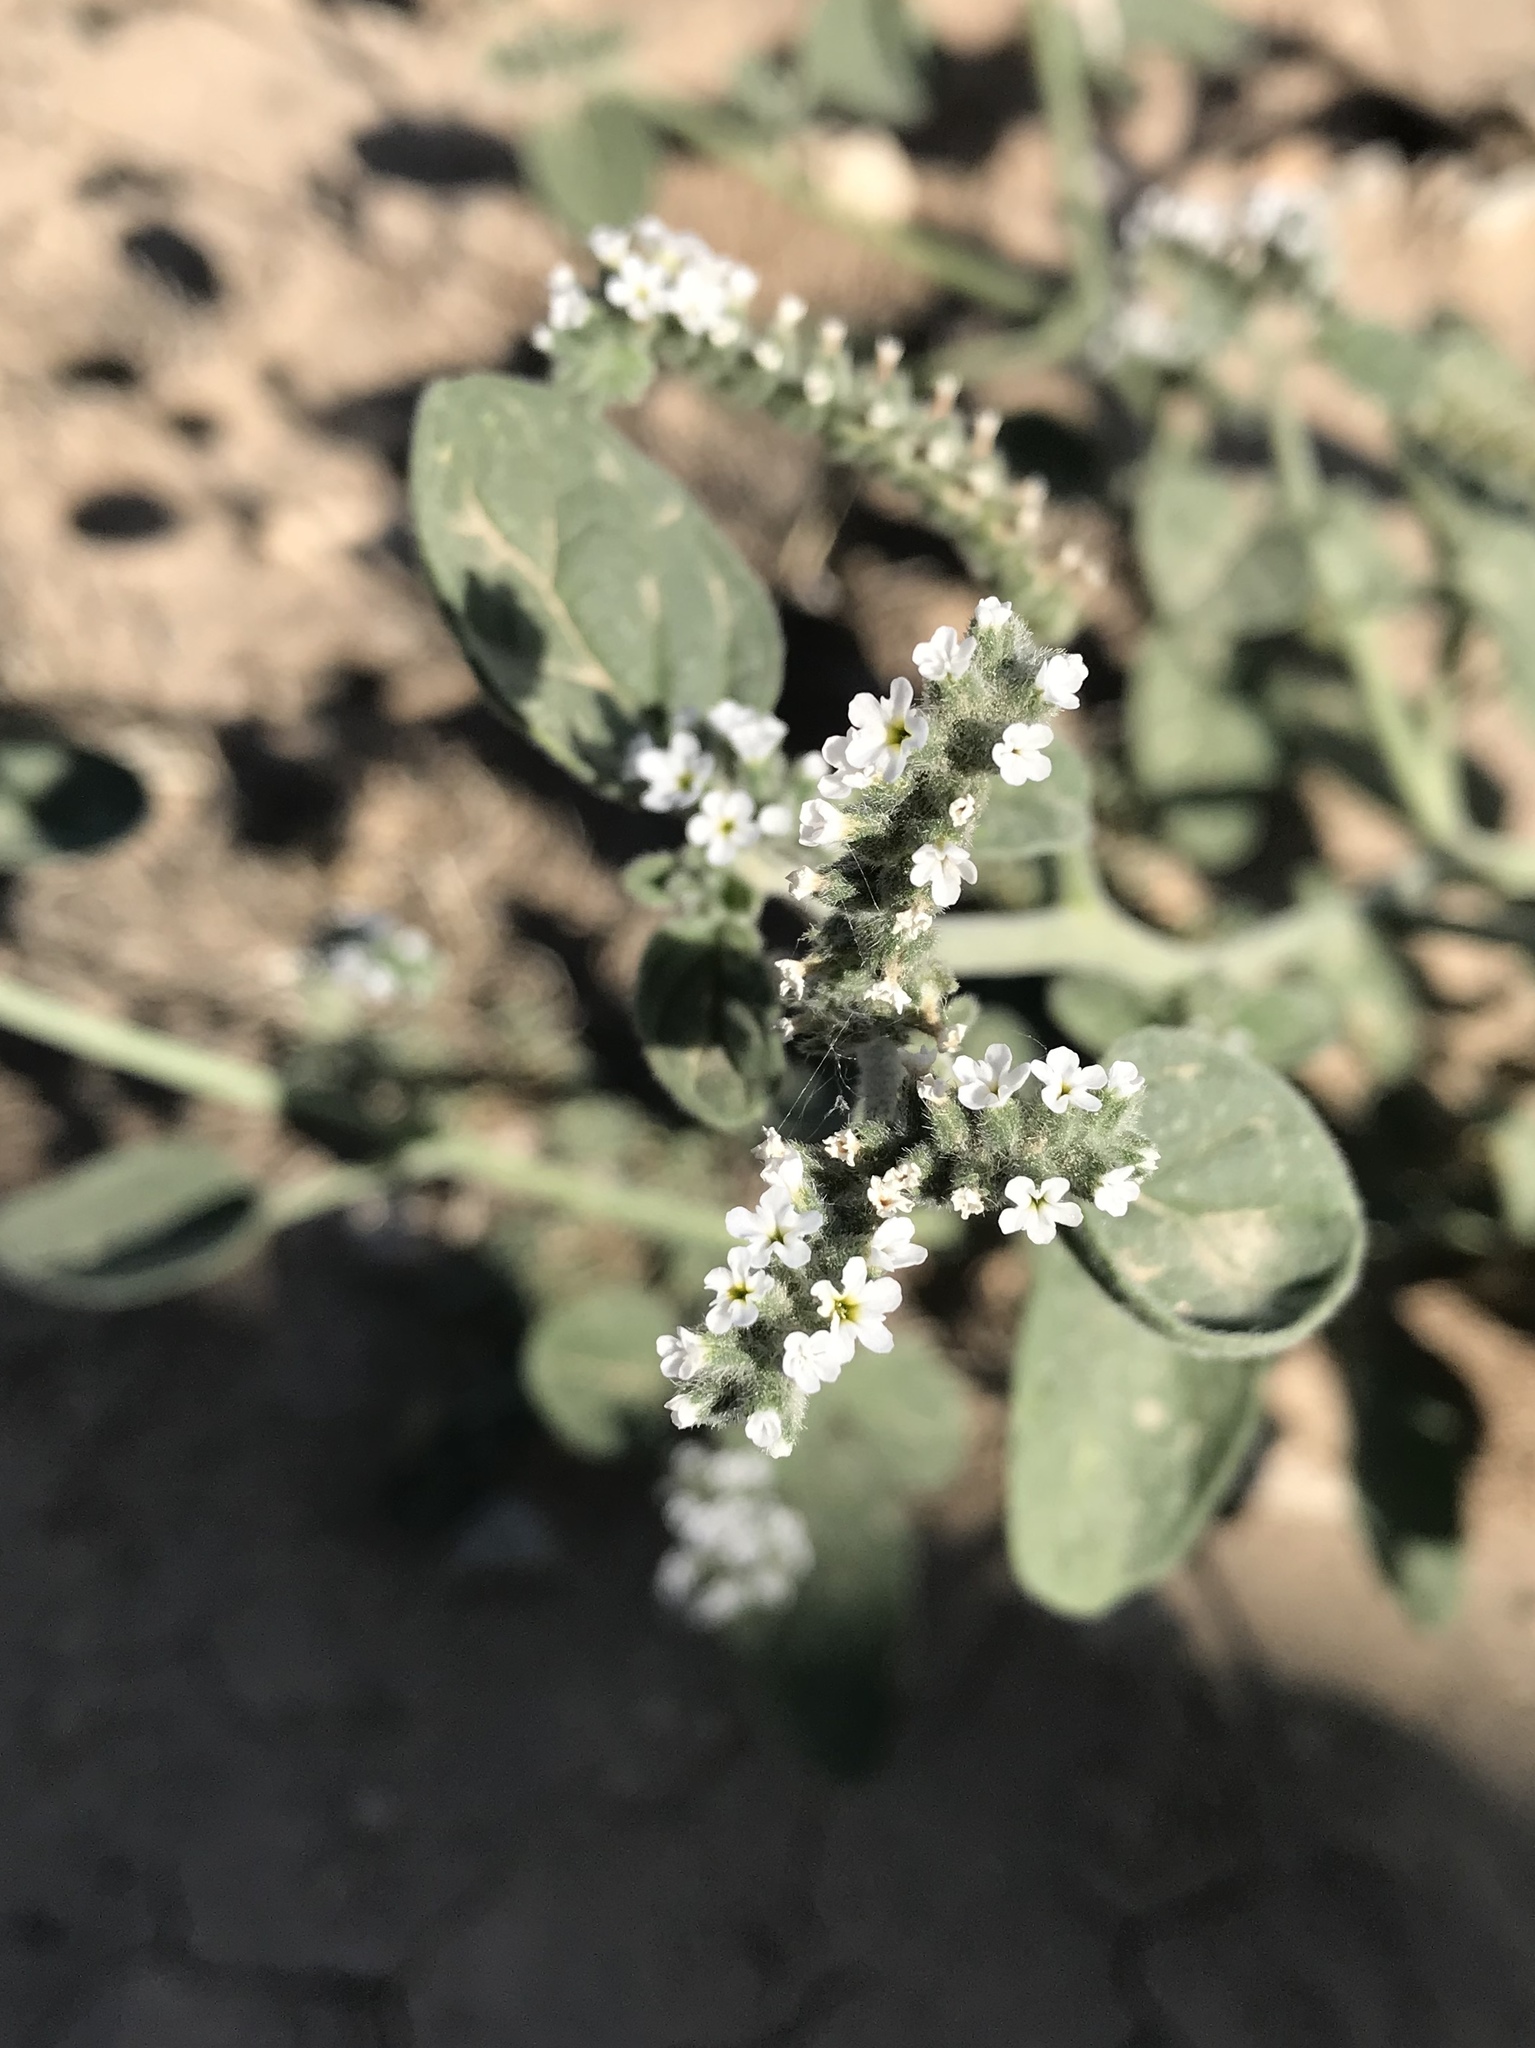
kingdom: Plantae
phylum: Tracheophyta
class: Magnoliopsida
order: Boraginales
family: Heliotropiaceae
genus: Heliotropium
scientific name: Heliotropium europaeum
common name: European heliotrope
